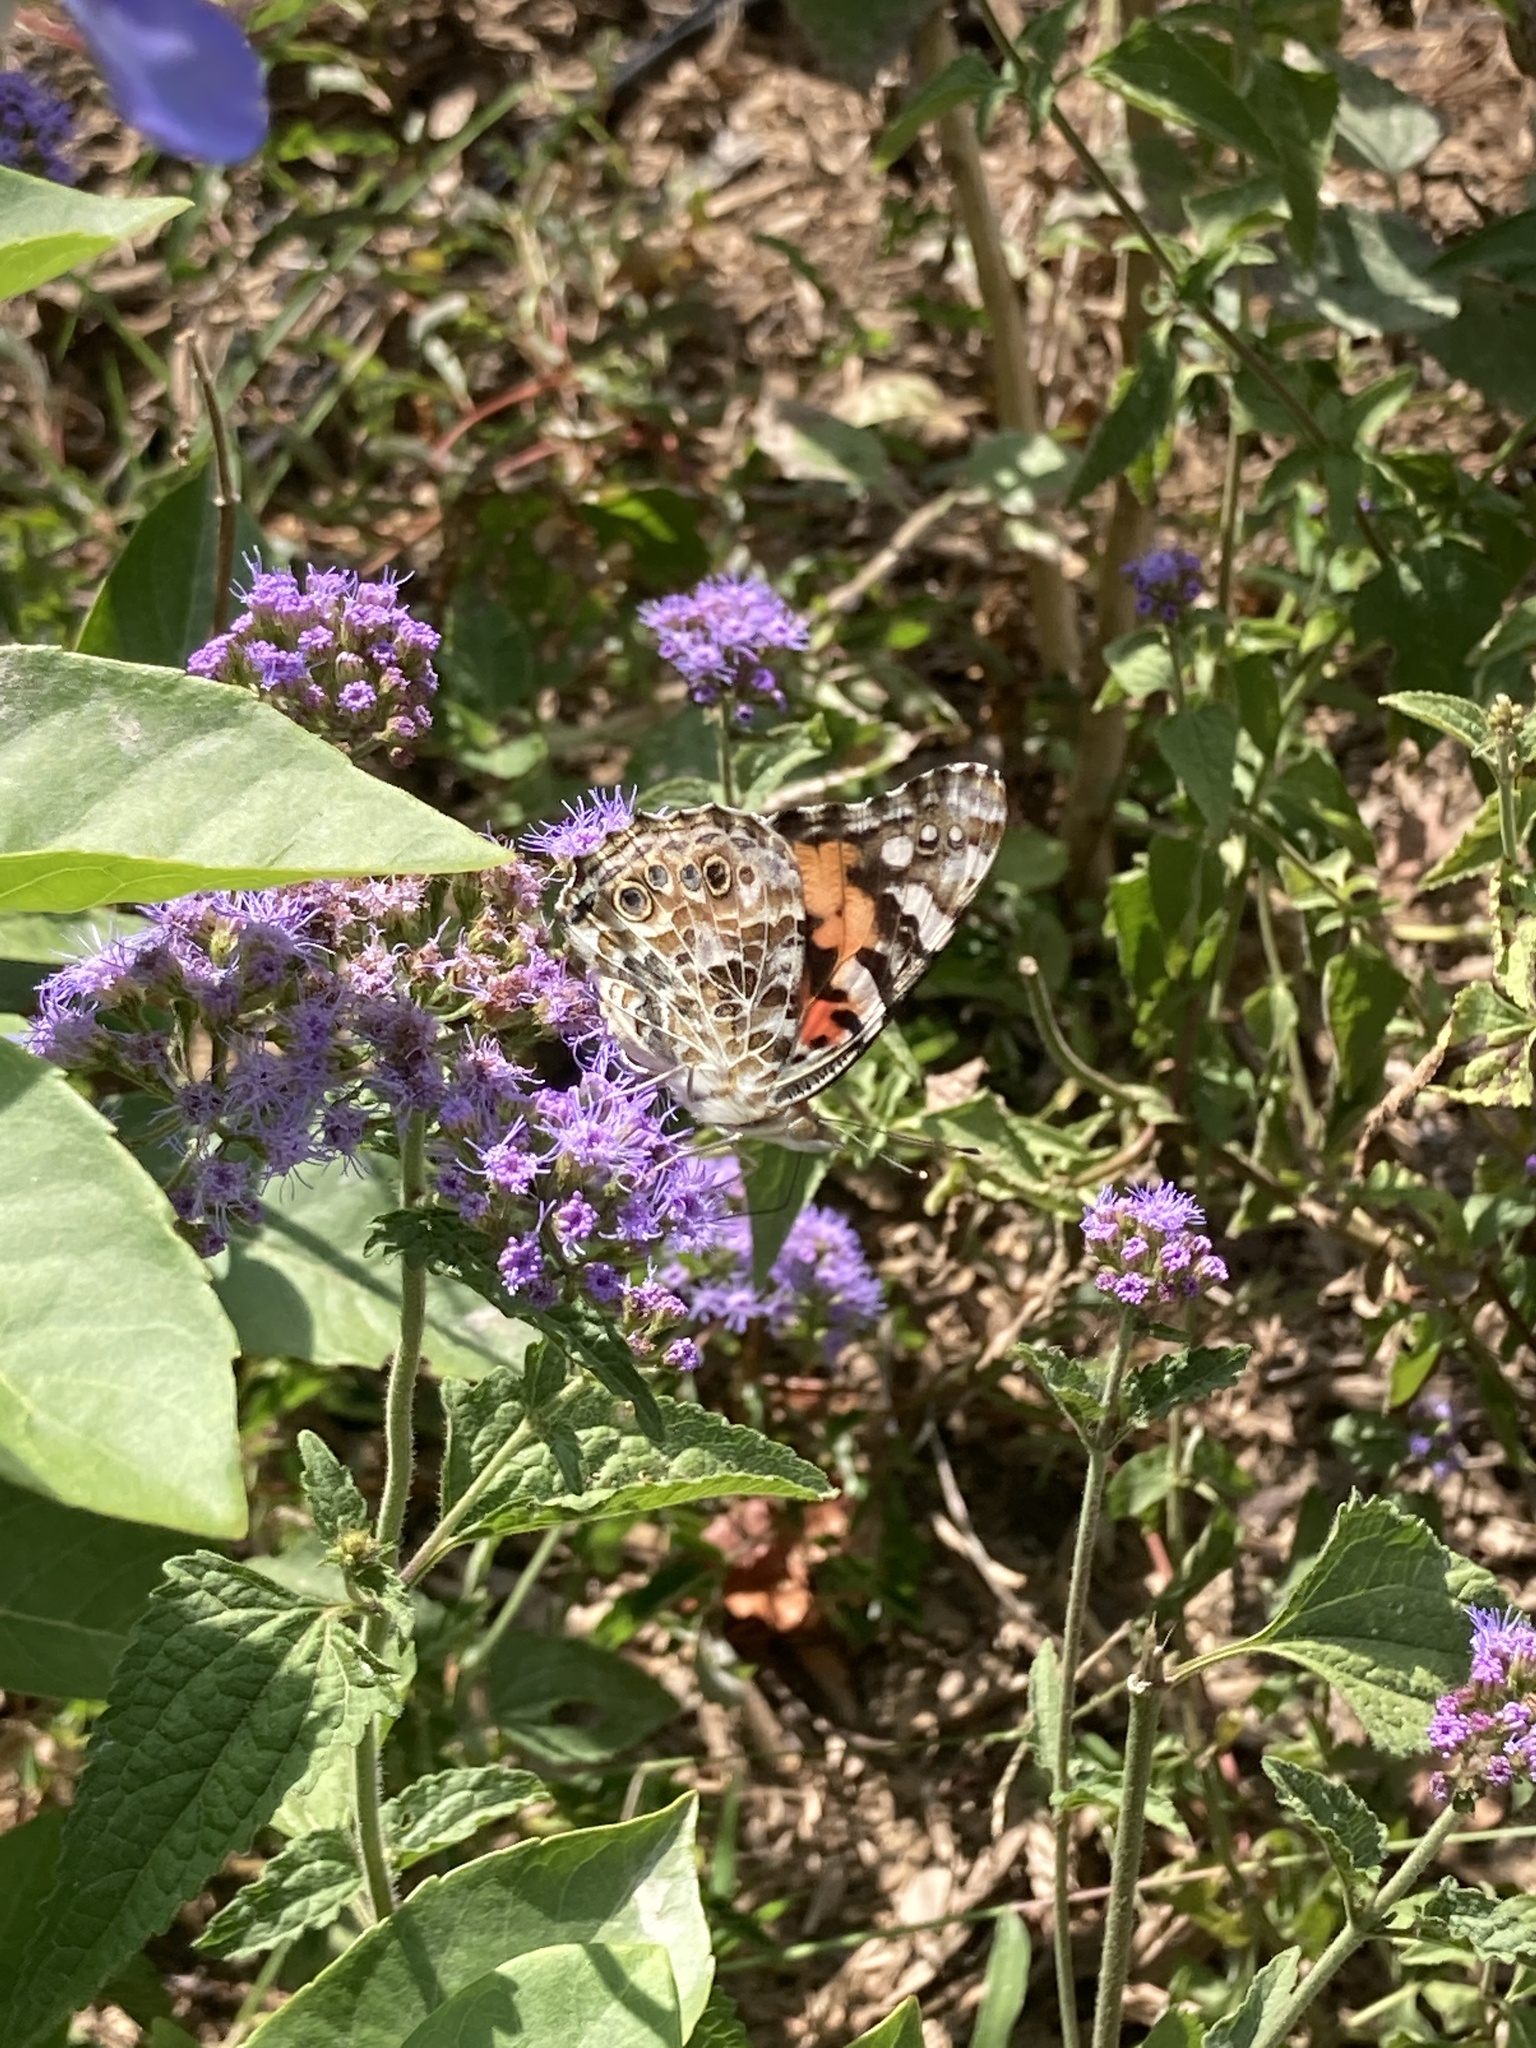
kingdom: Animalia
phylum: Arthropoda
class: Insecta
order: Lepidoptera
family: Nymphalidae
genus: Vanessa
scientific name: Vanessa cardui
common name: Painted lady
